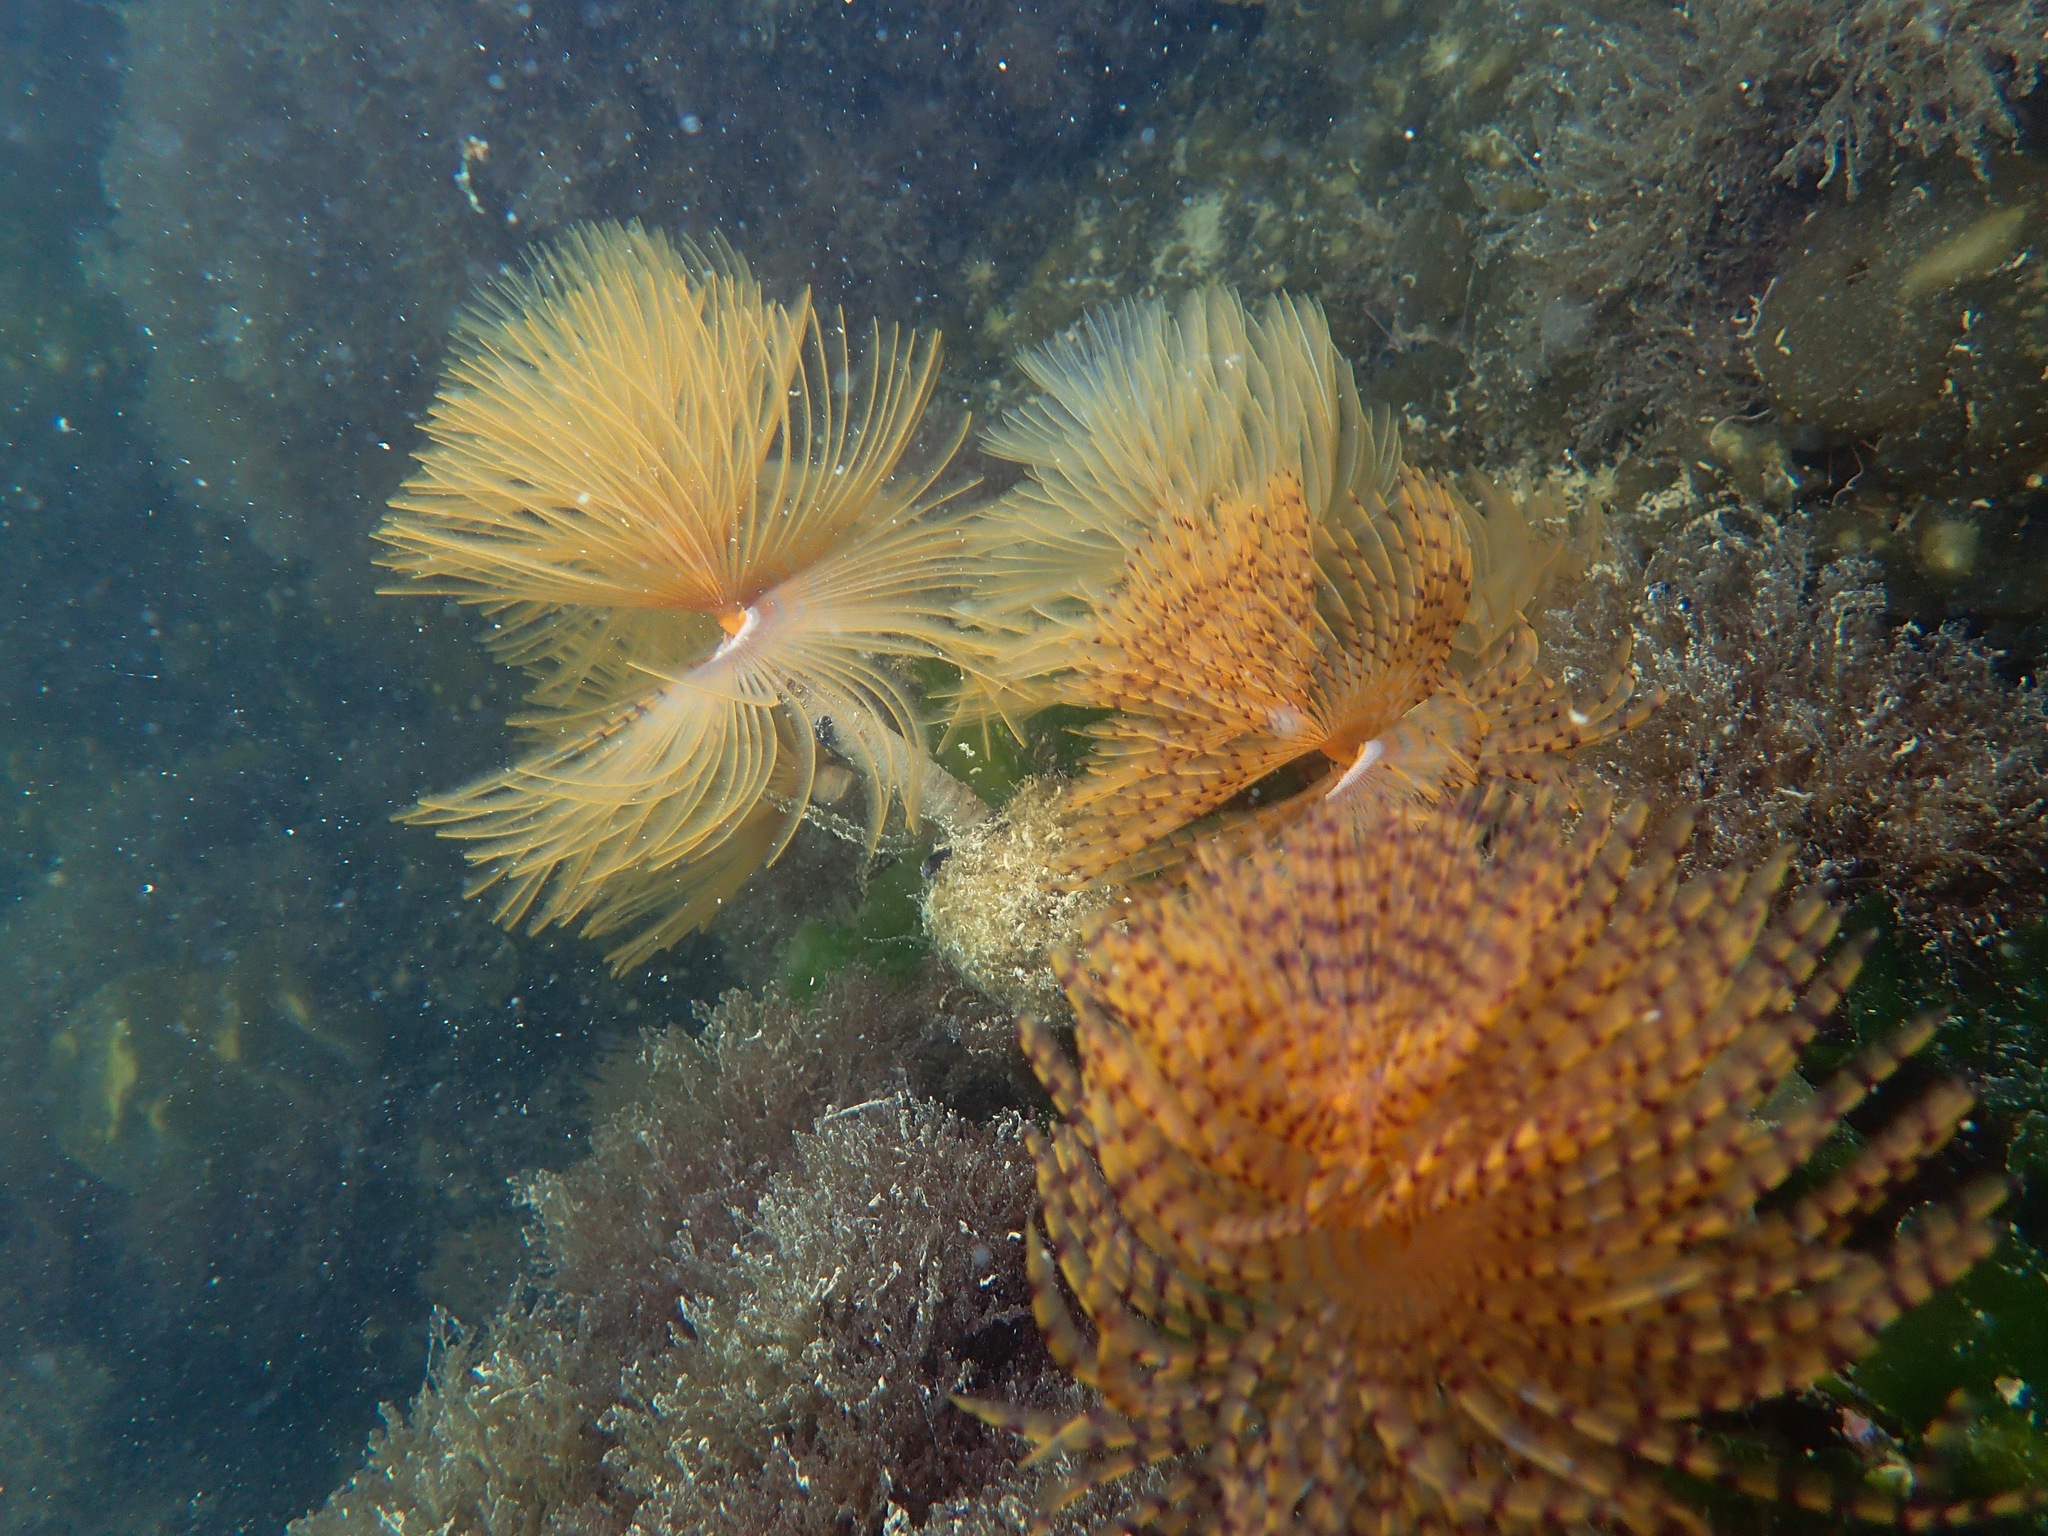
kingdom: Animalia
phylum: Annelida
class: Polychaeta
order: Sabellida
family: Sabellidae
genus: Sabella
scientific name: Sabella spallanzanii
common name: Feather duster worm
